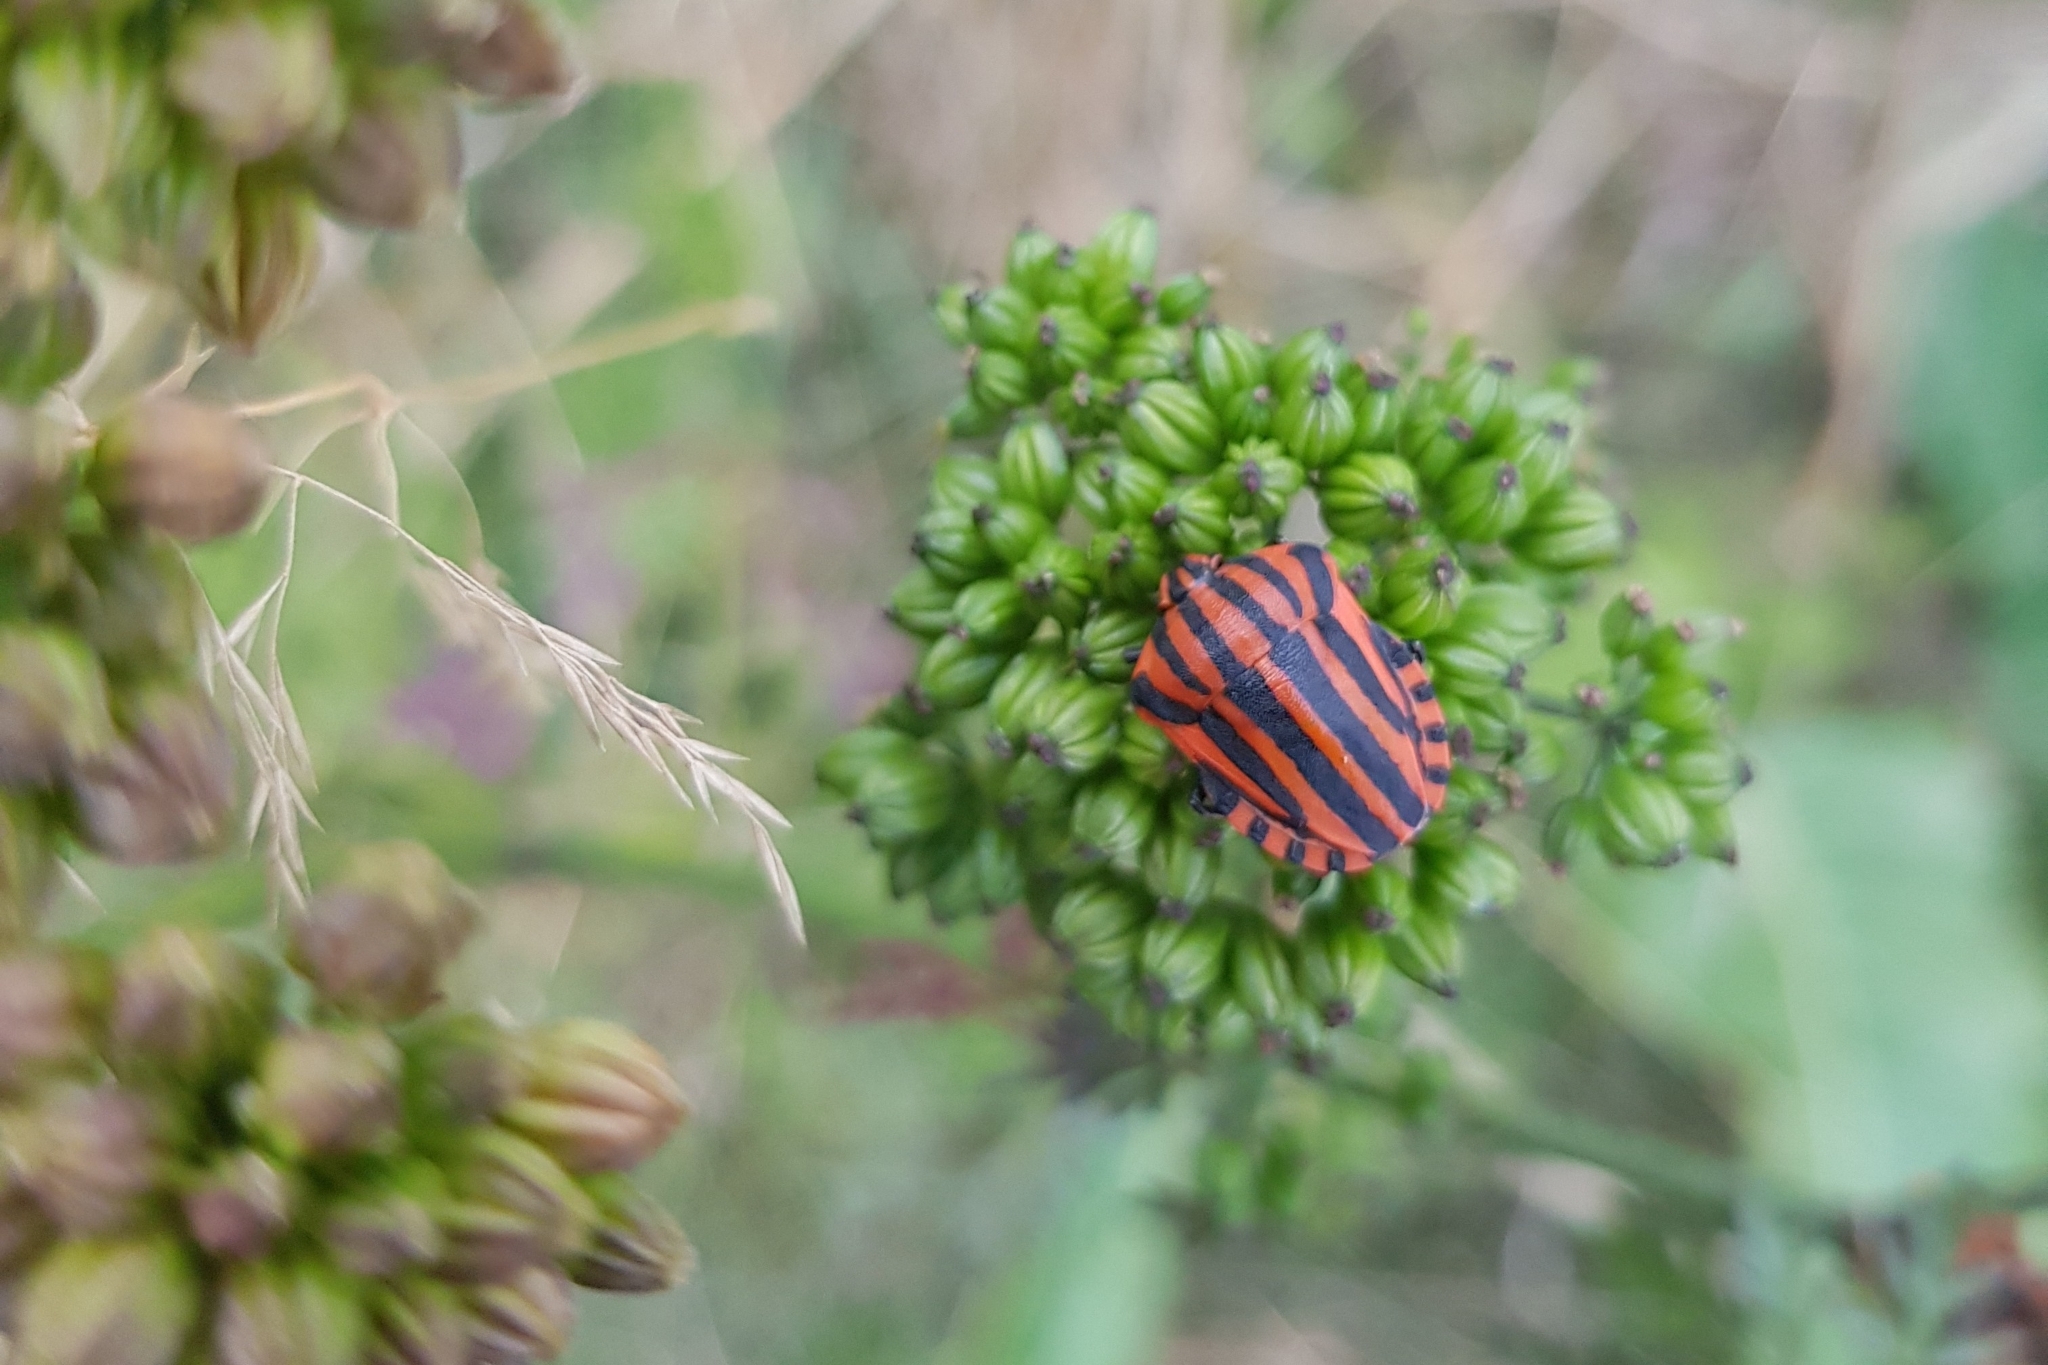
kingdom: Animalia
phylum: Arthropoda
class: Insecta
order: Hemiptera
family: Pentatomidae
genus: Graphosoma
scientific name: Graphosoma italicum
